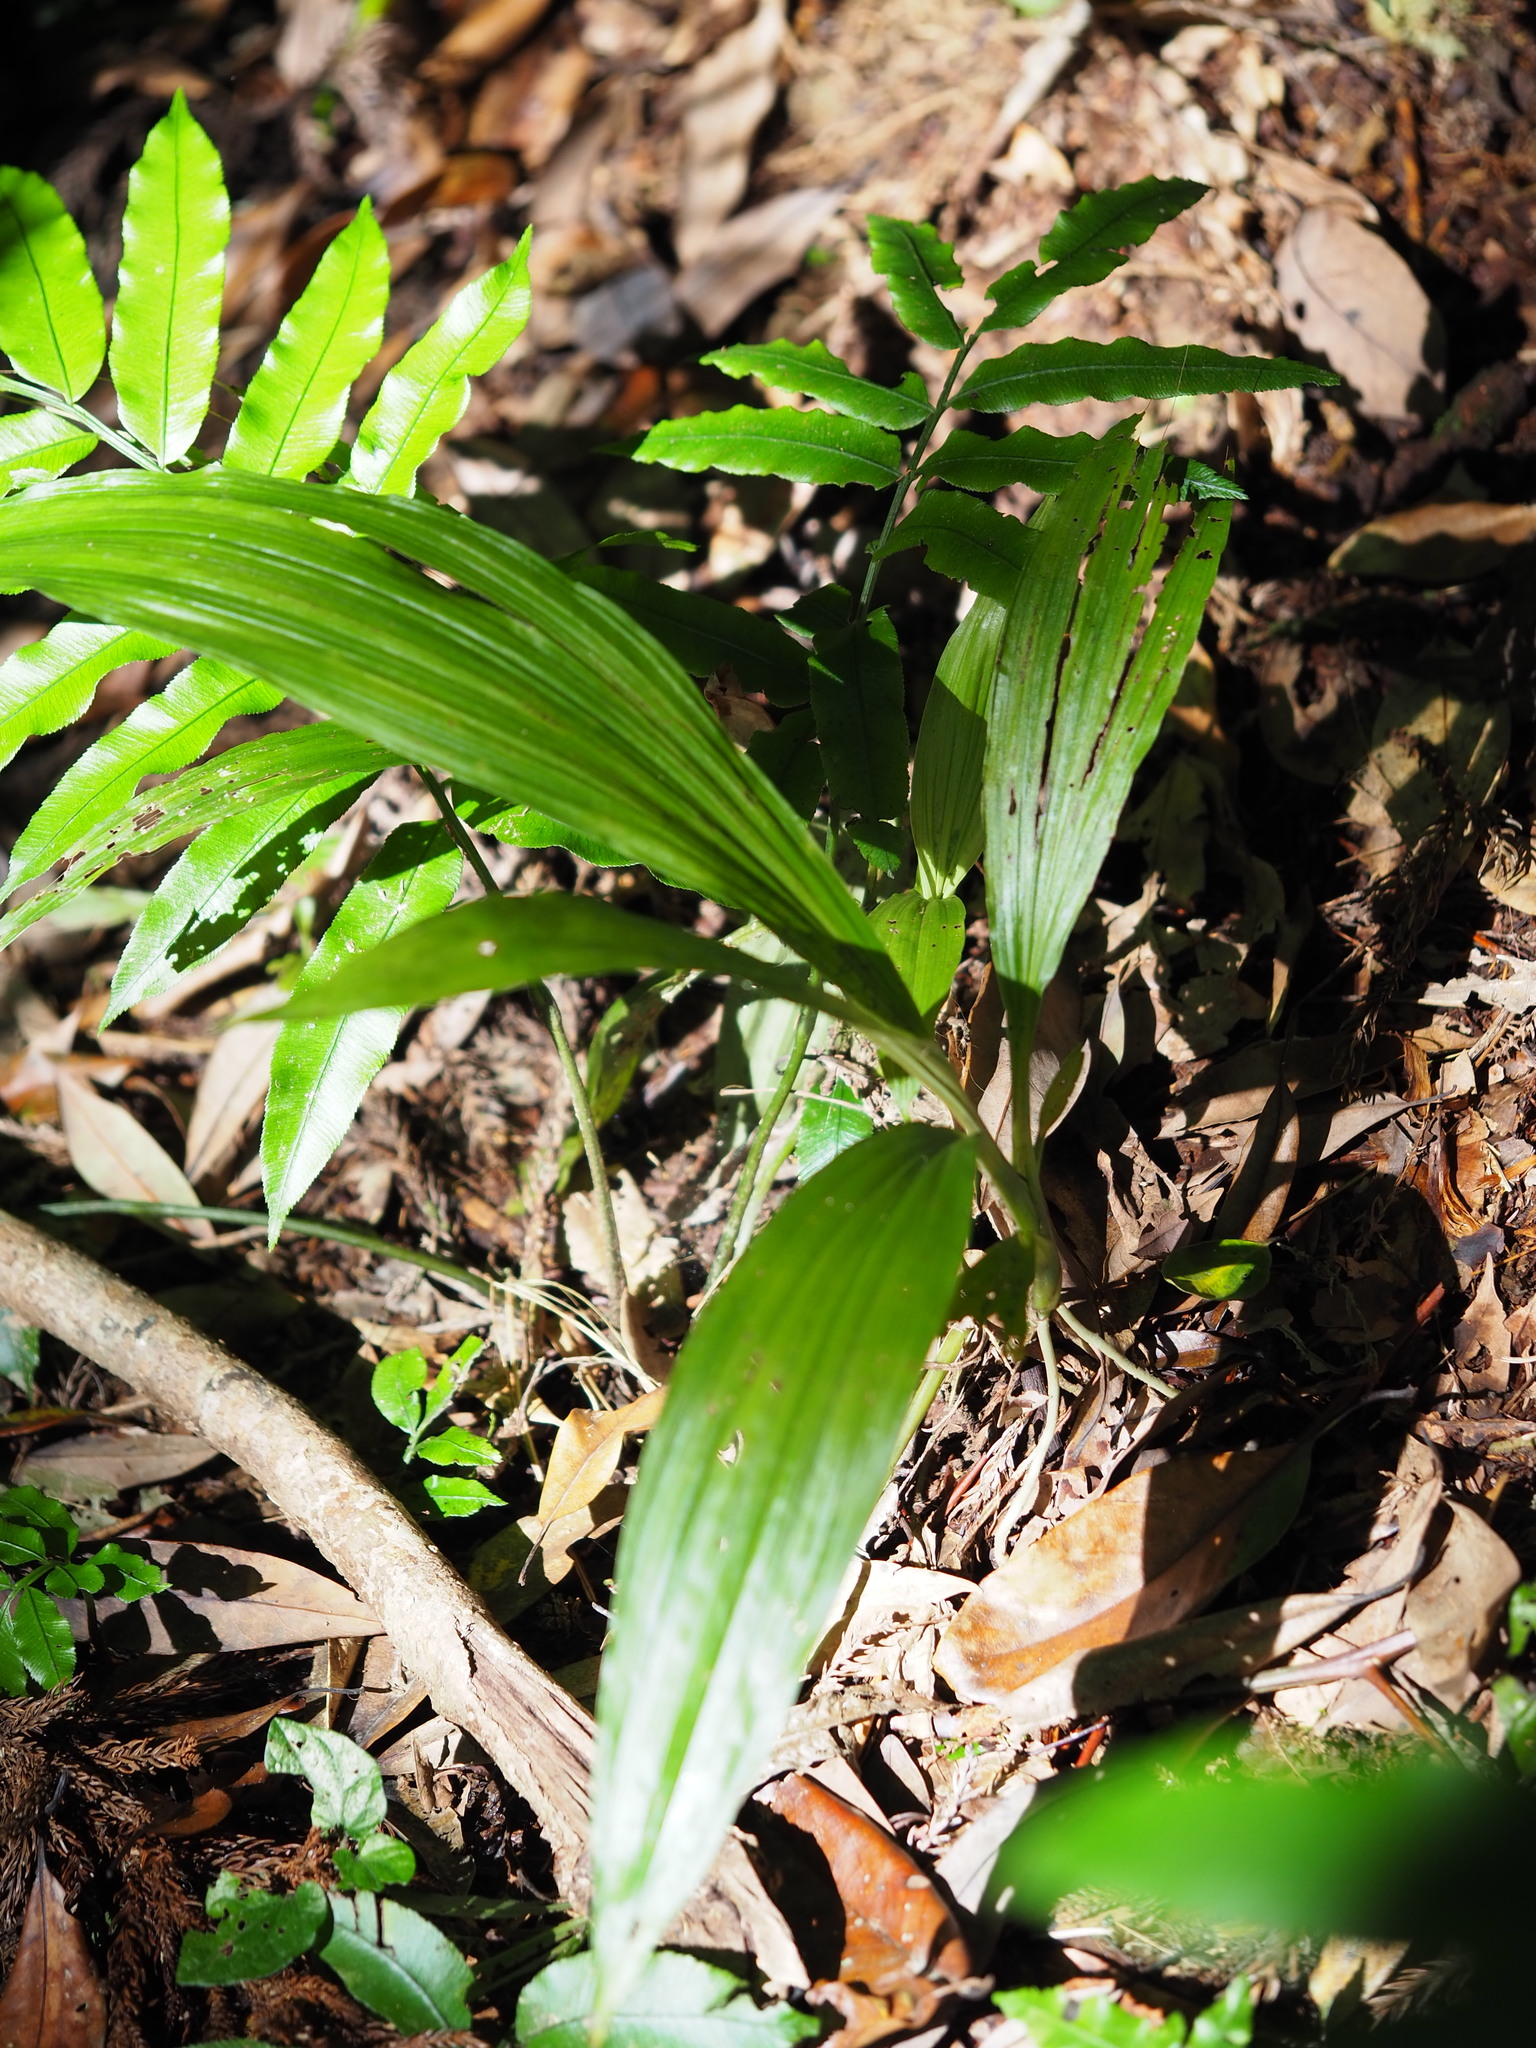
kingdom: Plantae
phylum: Tracheophyta
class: Liliopsida
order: Asparagales
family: Orchidaceae
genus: Calanthe
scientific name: Calanthe formosana
